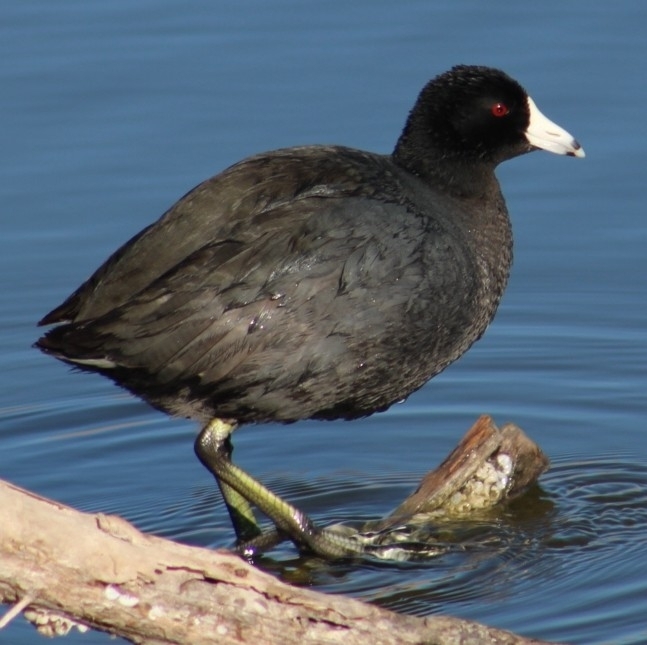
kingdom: Animalia
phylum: Chordata
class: Aves
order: Gruiformes
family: Rallidae
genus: Fulica
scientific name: Fulica americana
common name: American coot
